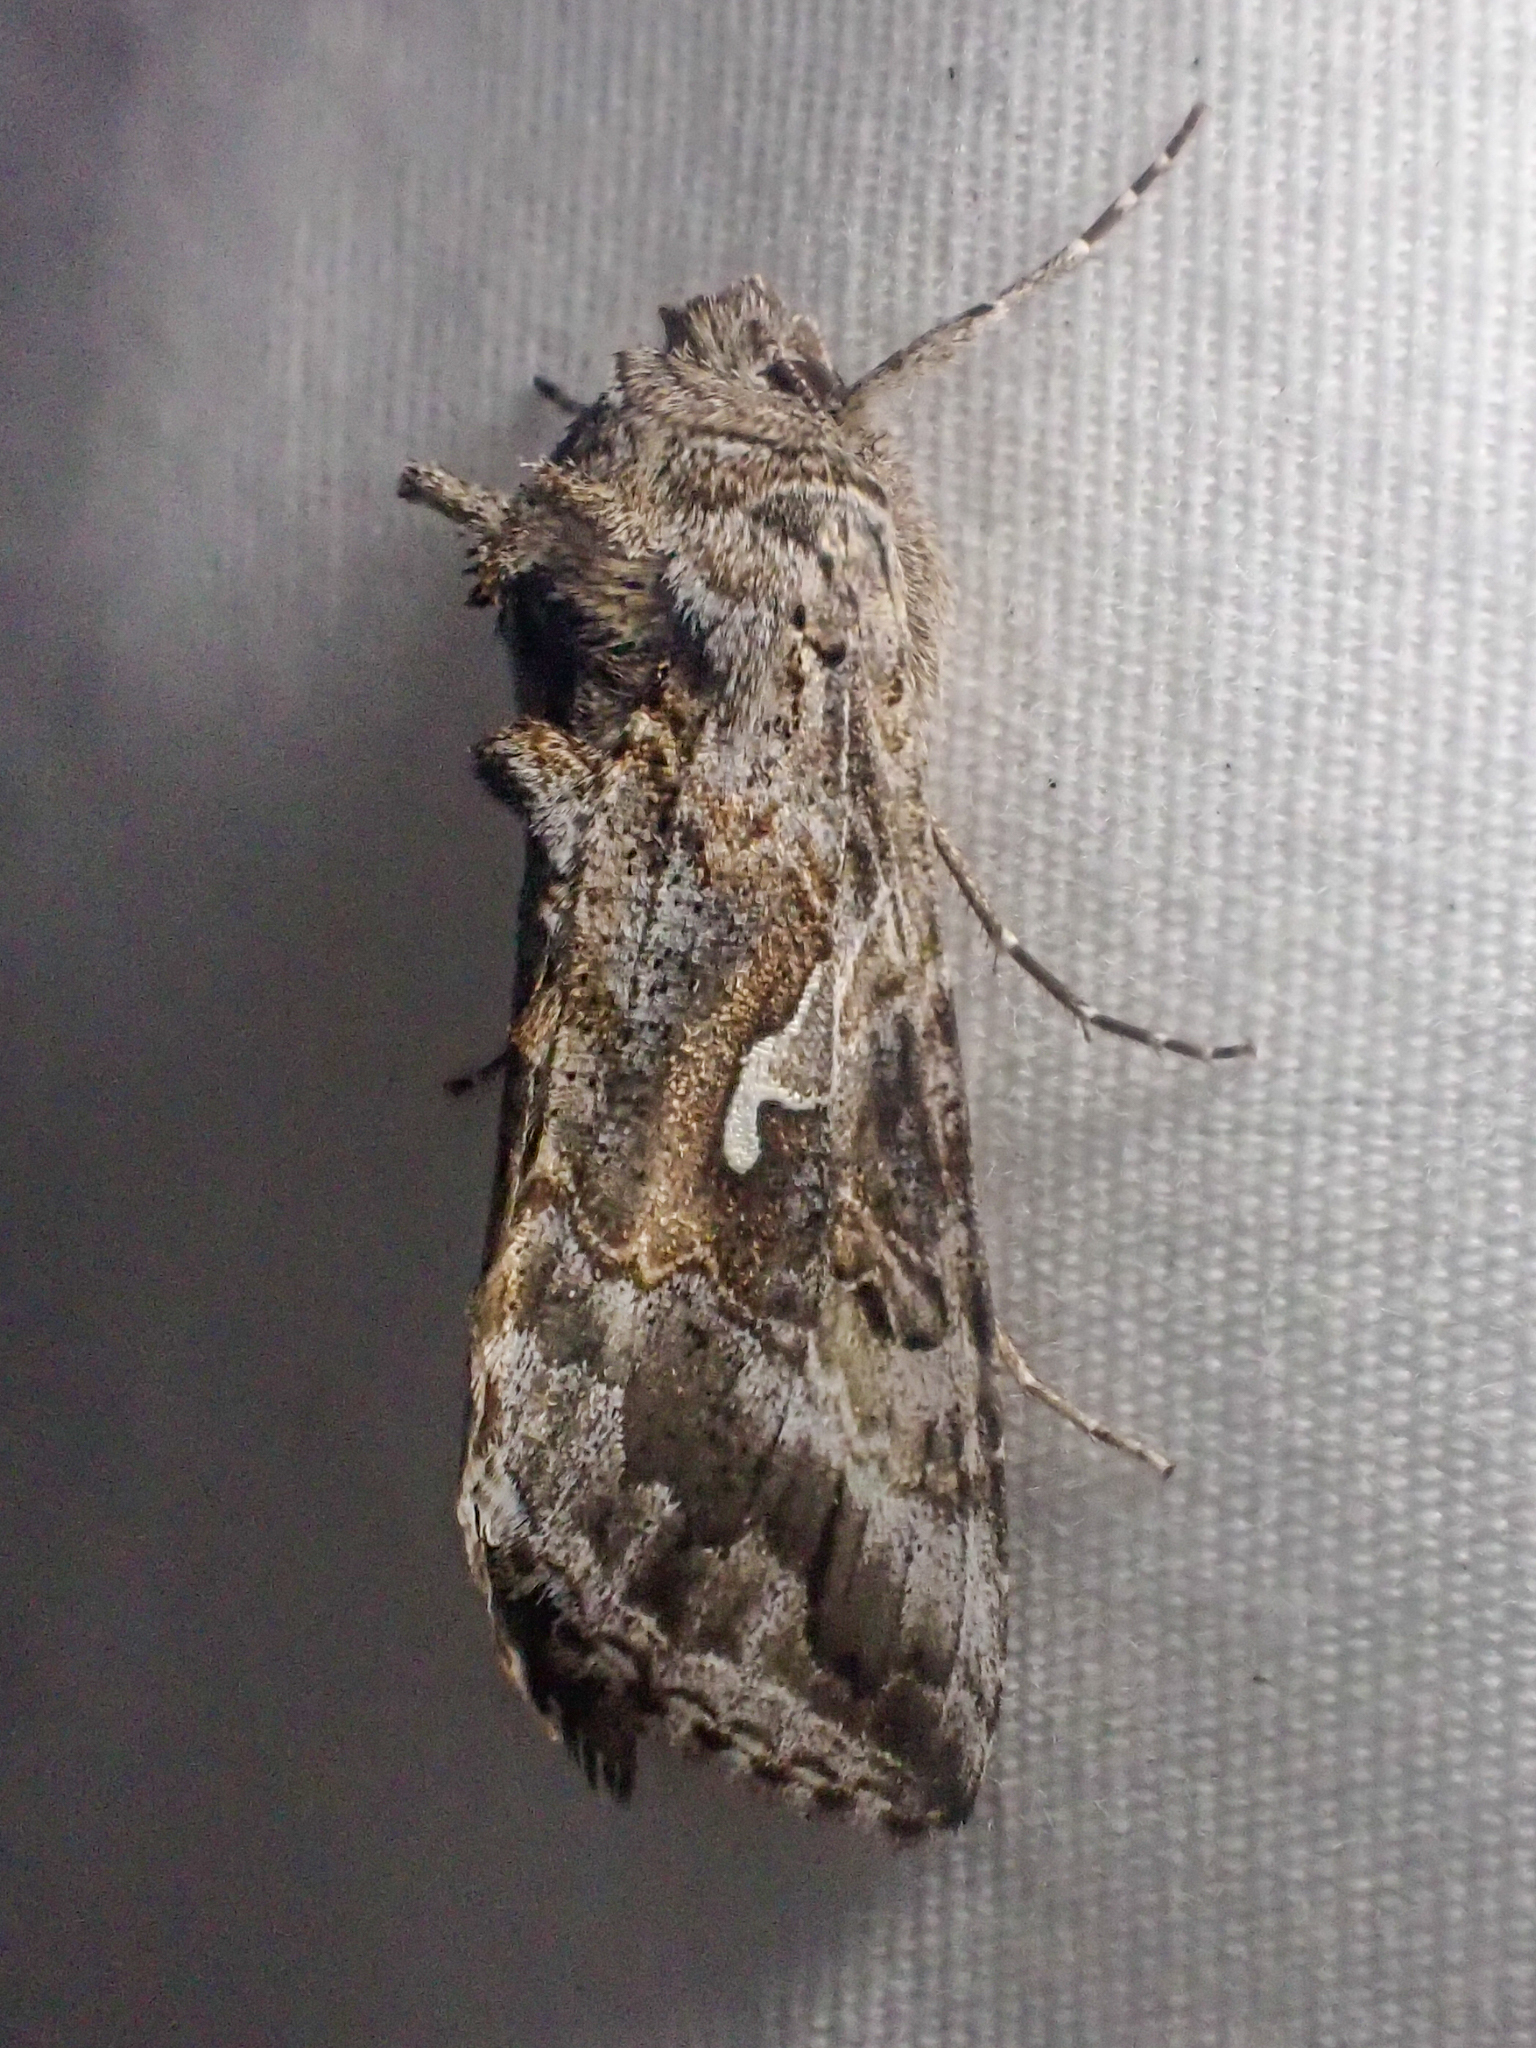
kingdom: Animalia
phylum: Arthropoda
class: Insecta
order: Lepidoptera
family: Noctuidae
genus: Autographa
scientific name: Autographa californica
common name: Alfalfa looper
